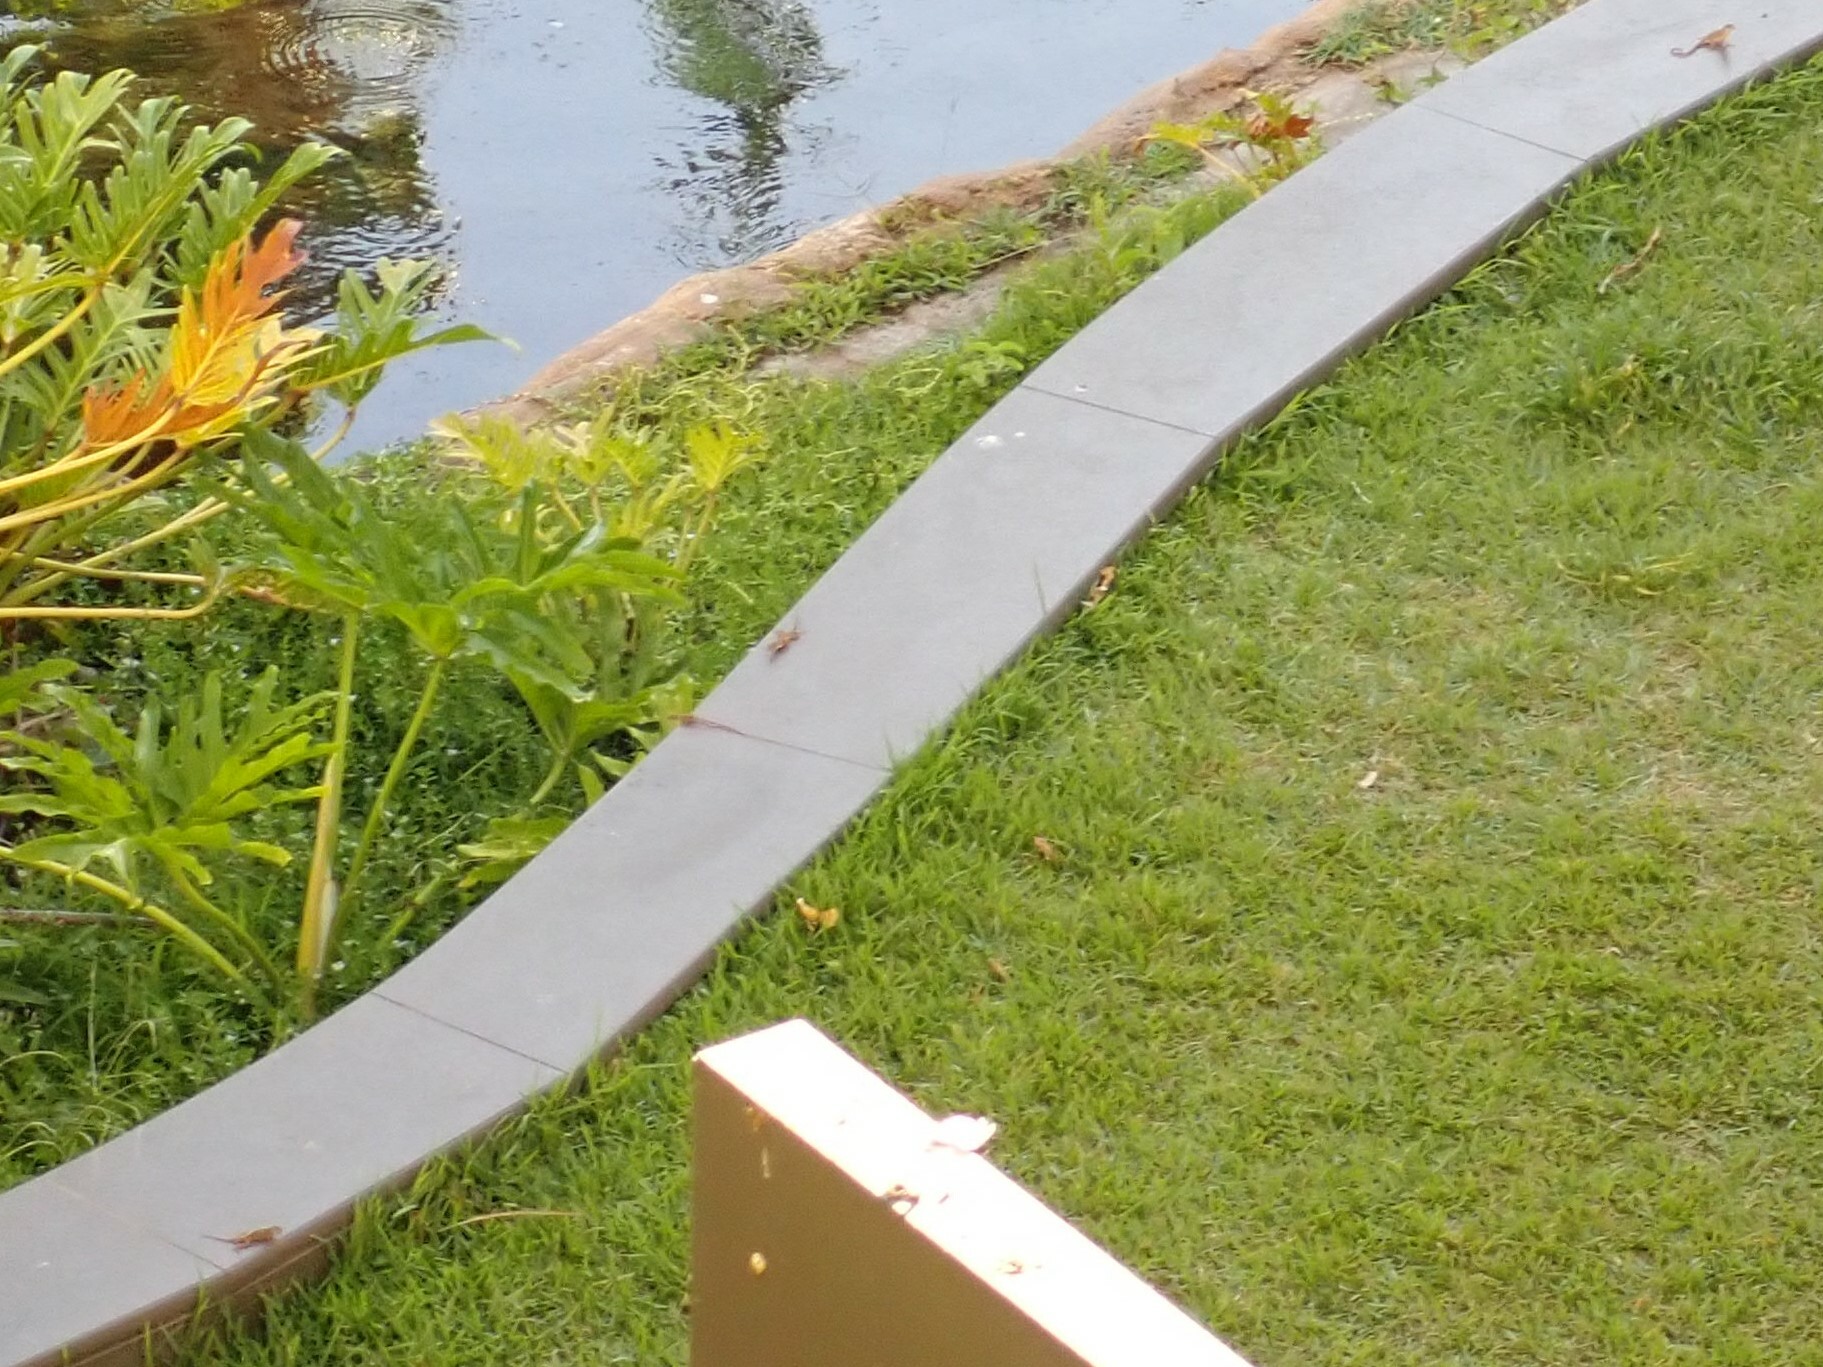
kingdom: Animalia
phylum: Chordata
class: Squamata
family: Dactyloidae
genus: Anolis
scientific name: Anolis sagrei
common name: Brown anole
